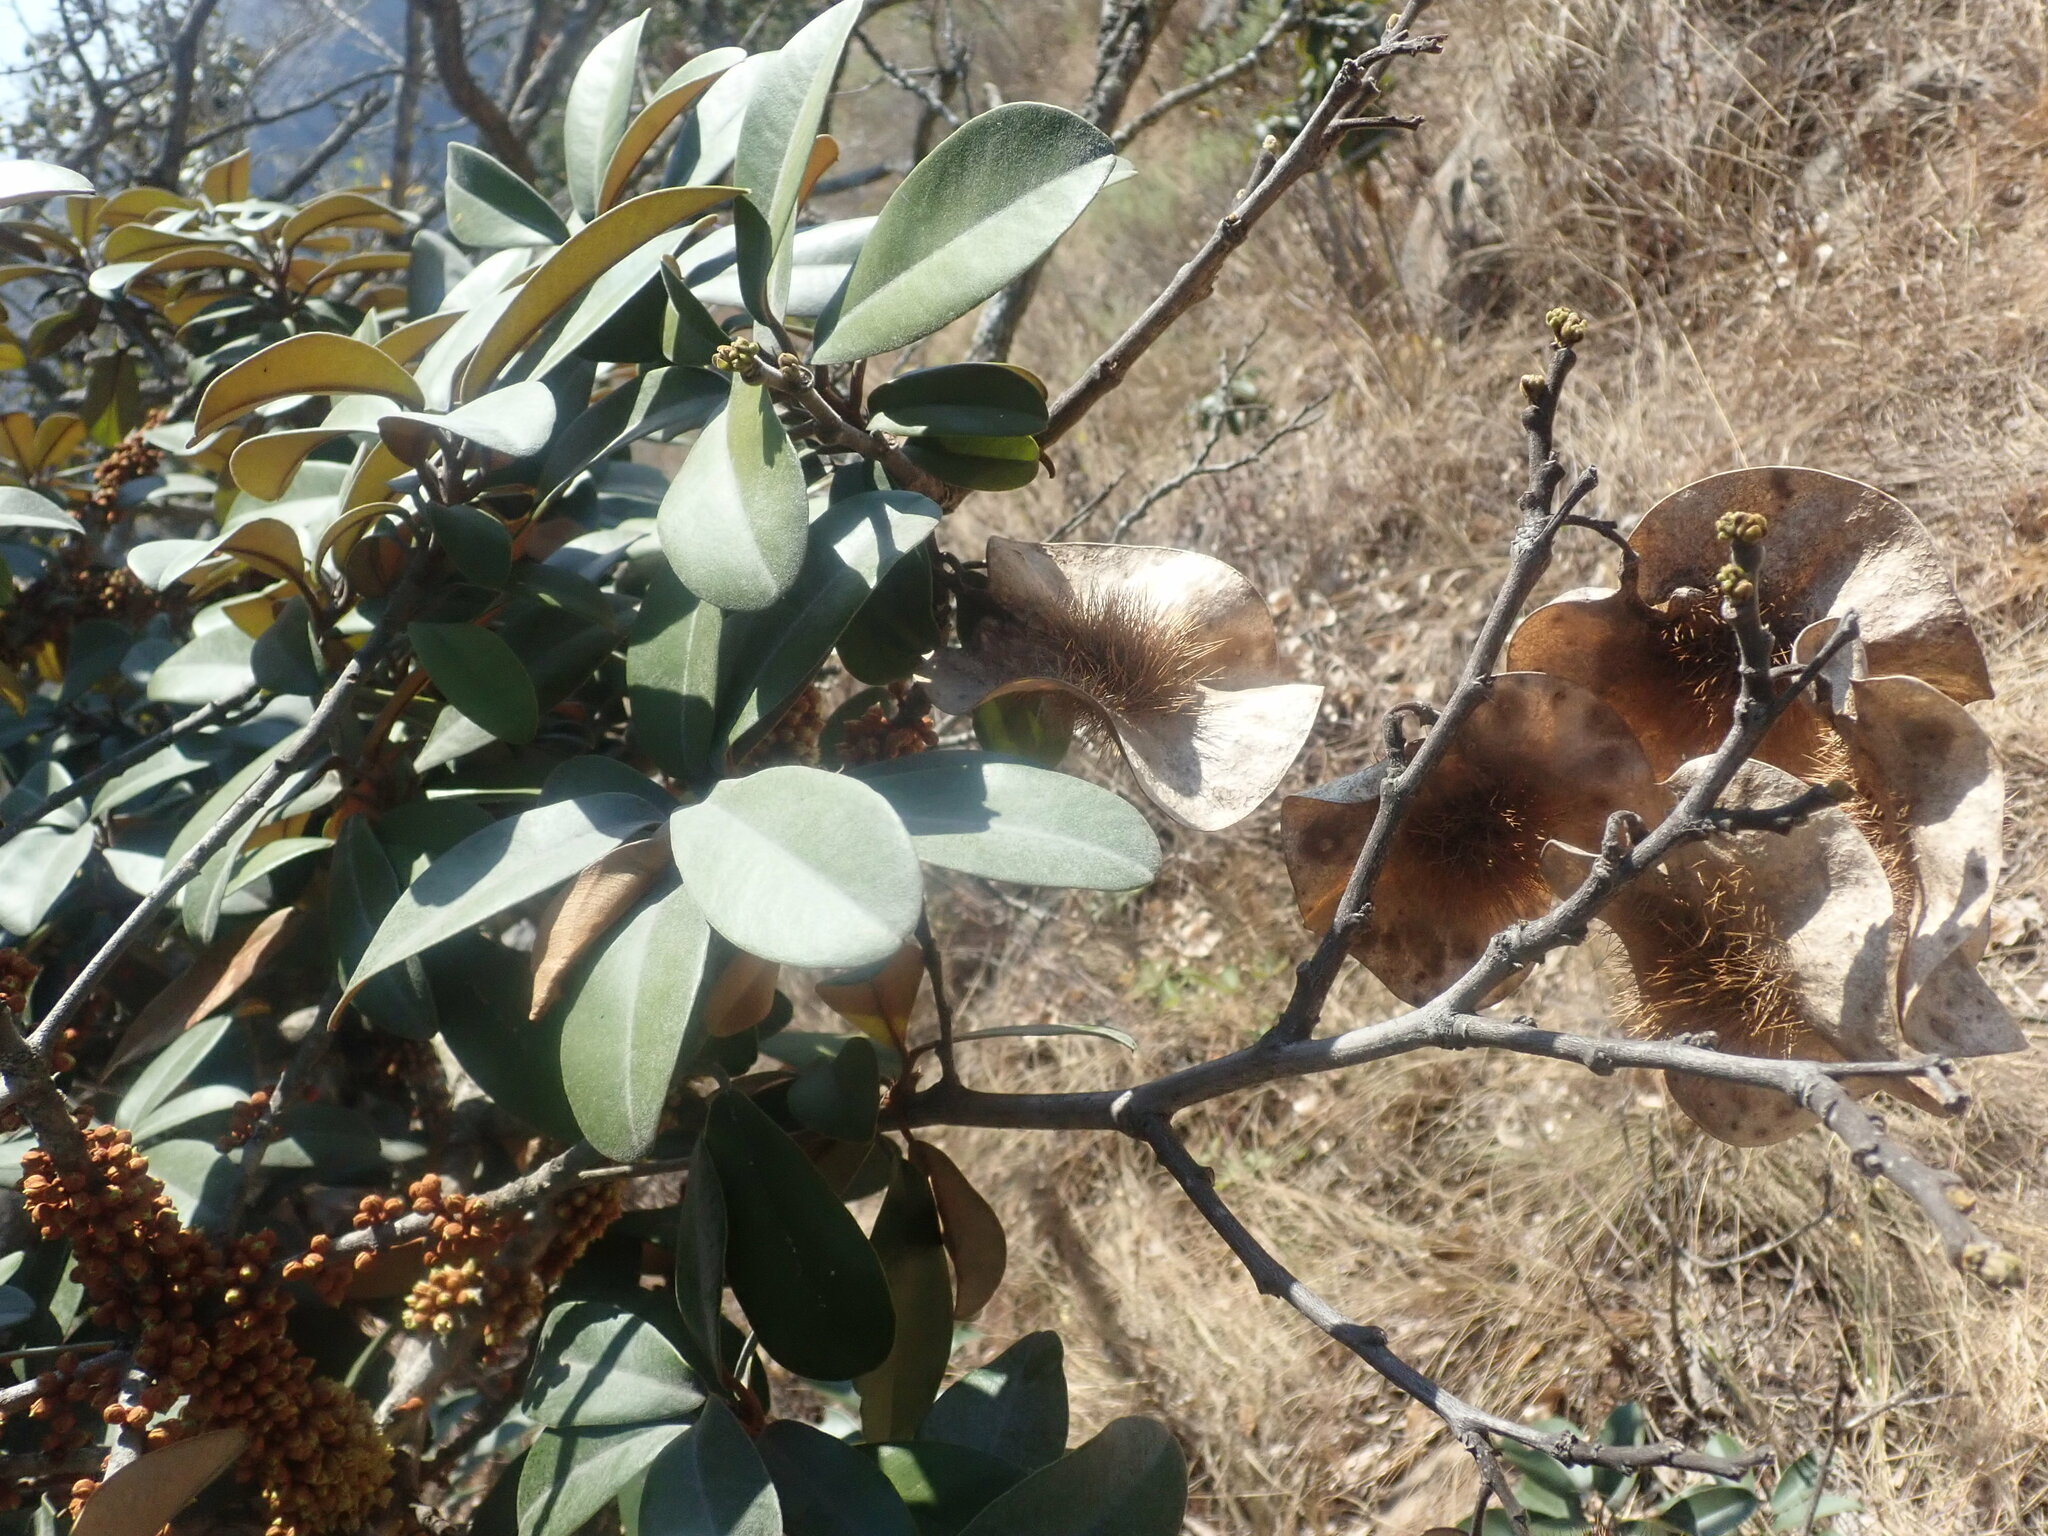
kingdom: Plantae
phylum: Tracheophyta
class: Magnoliopsida
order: Fabales
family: Fabaceae
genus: Pterocarpus
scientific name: Pterocarpus angolensis
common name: Bloodwood tree
